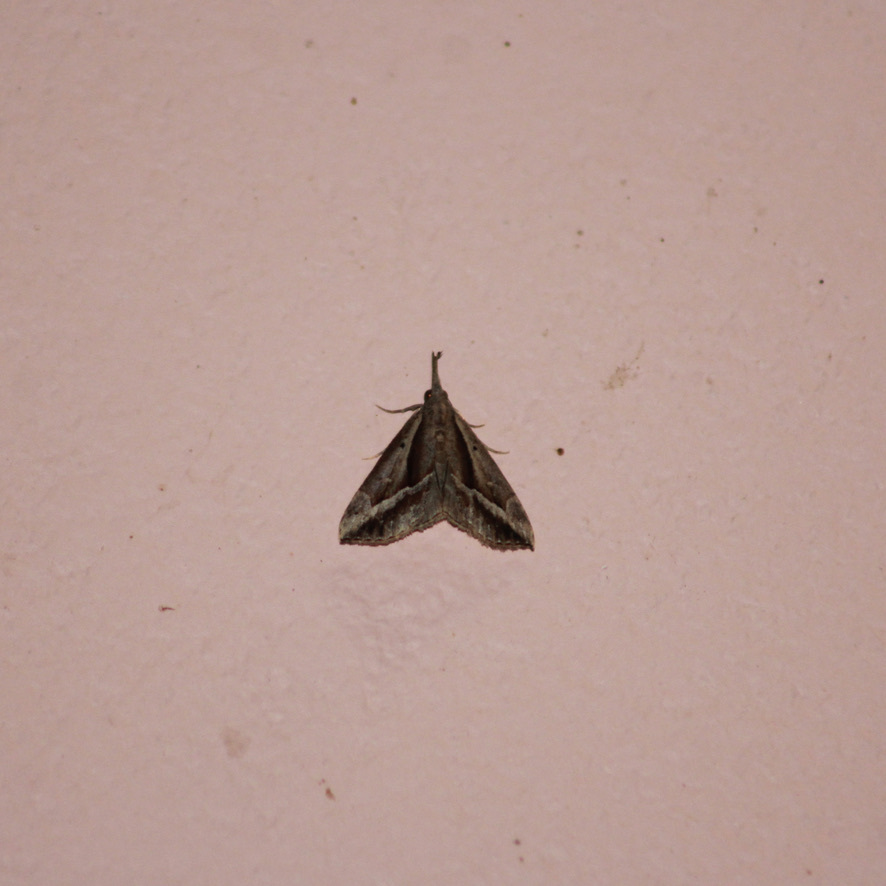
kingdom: Animalia
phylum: Arthropoda
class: Insecta
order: Lepidoptera
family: Erebidae
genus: Hypena
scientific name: Hypena fufialis
